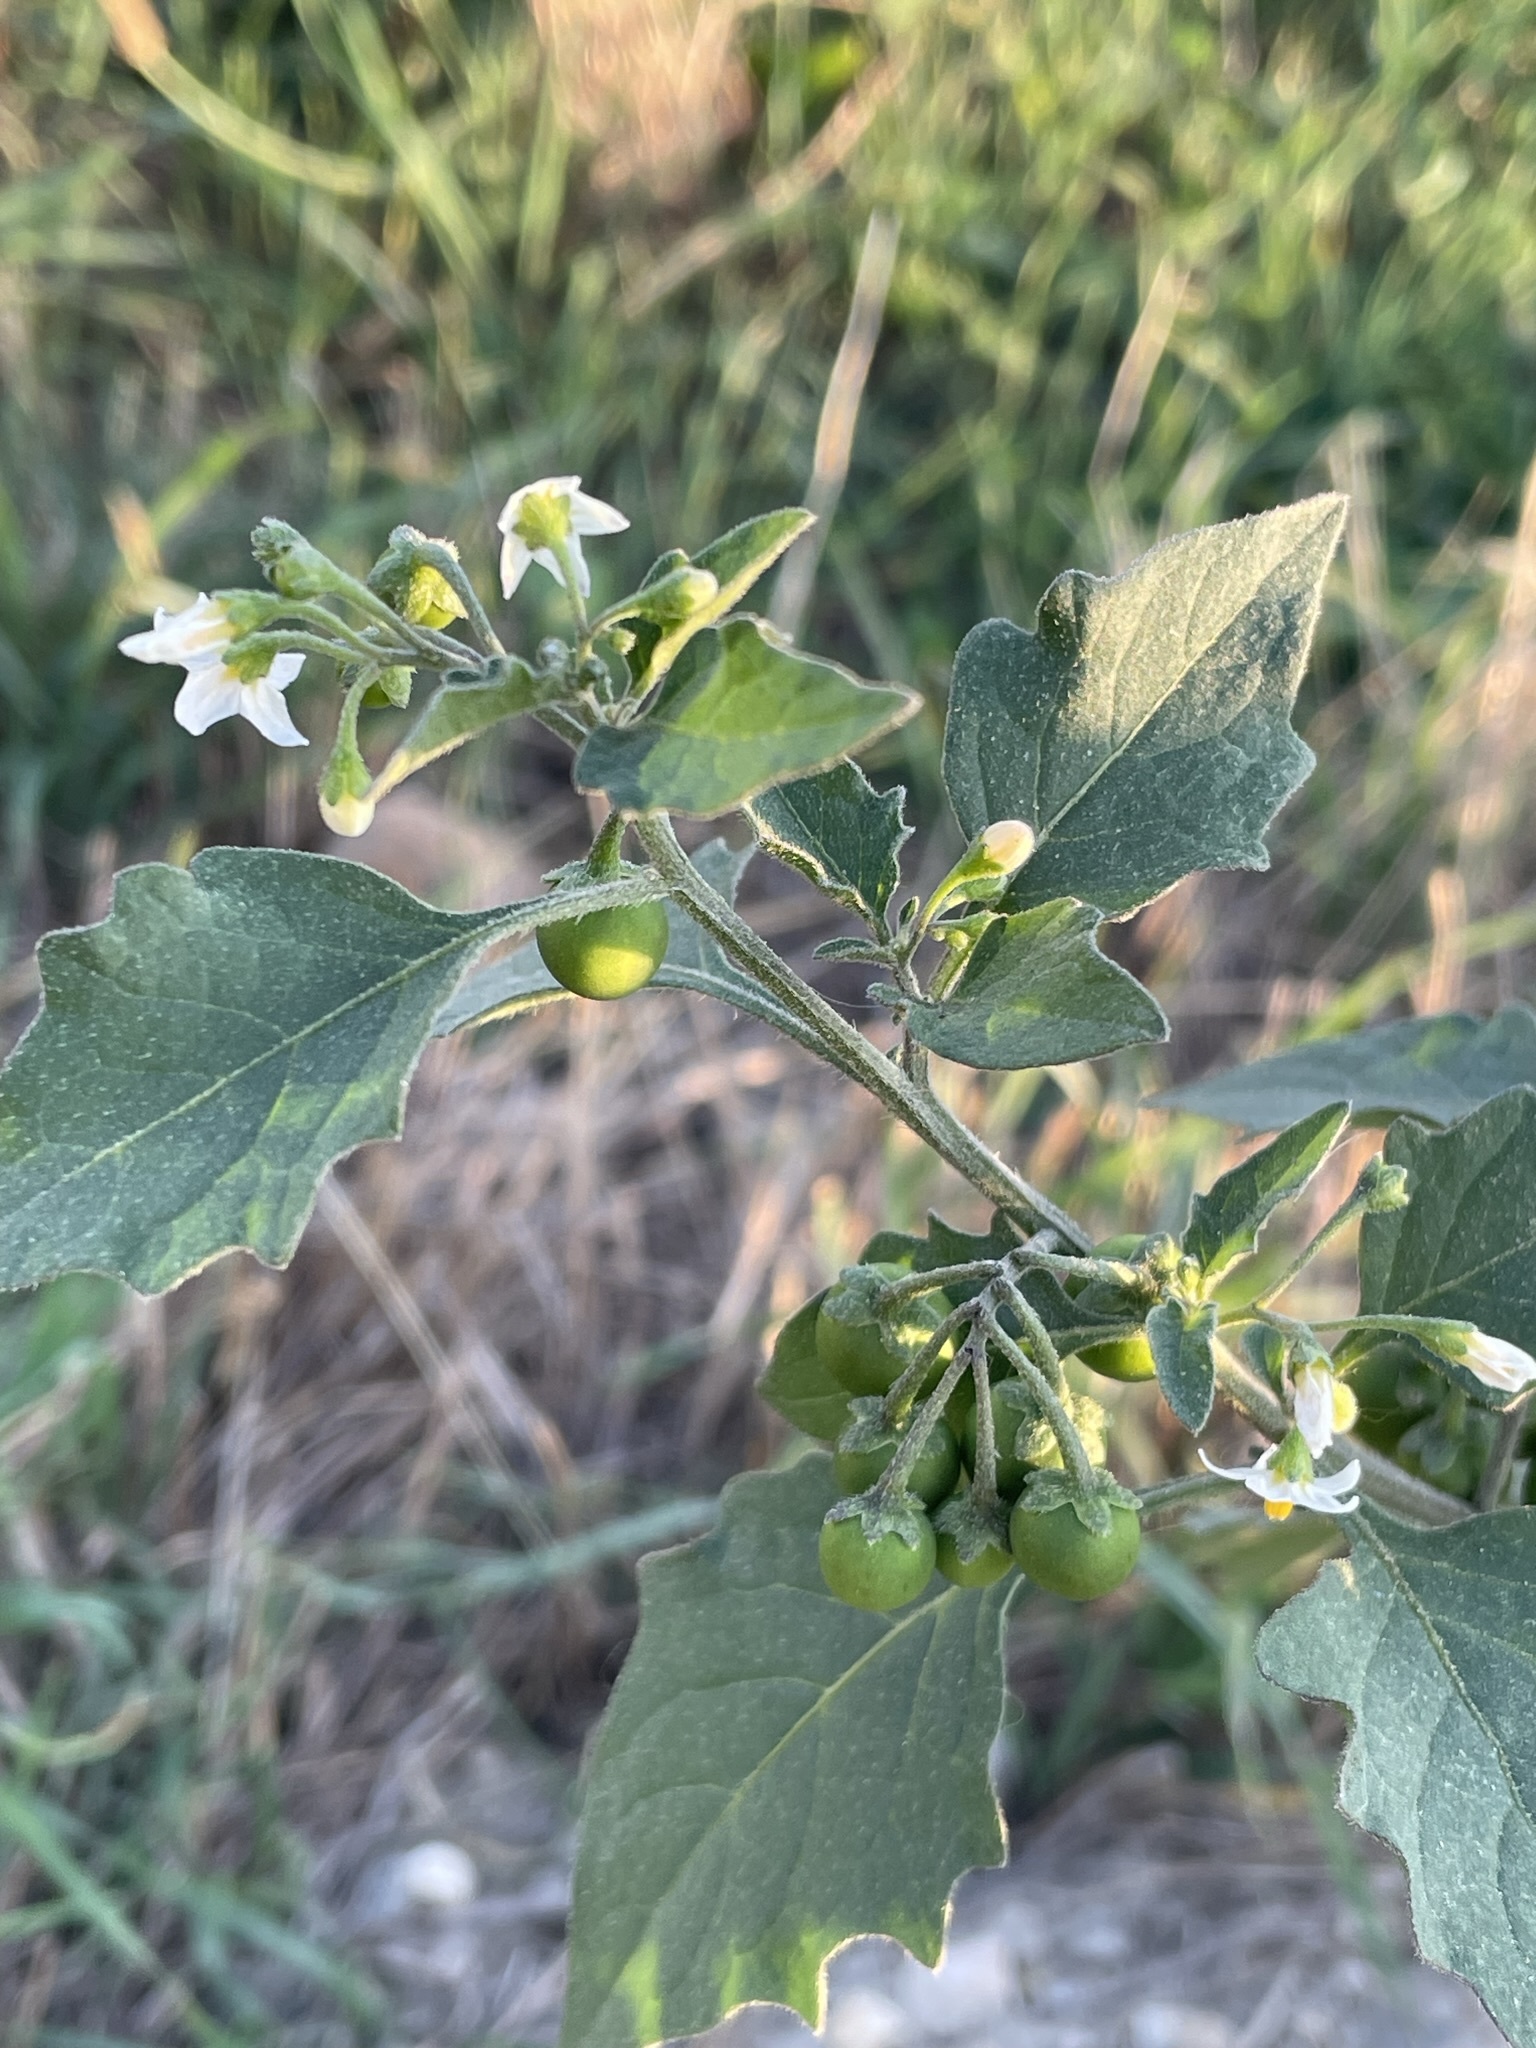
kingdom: Plantae
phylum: Tracheophyta
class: Magnoliopsida
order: Solanales
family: Solanaceae
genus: Solanum
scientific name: Solanum decipiens
